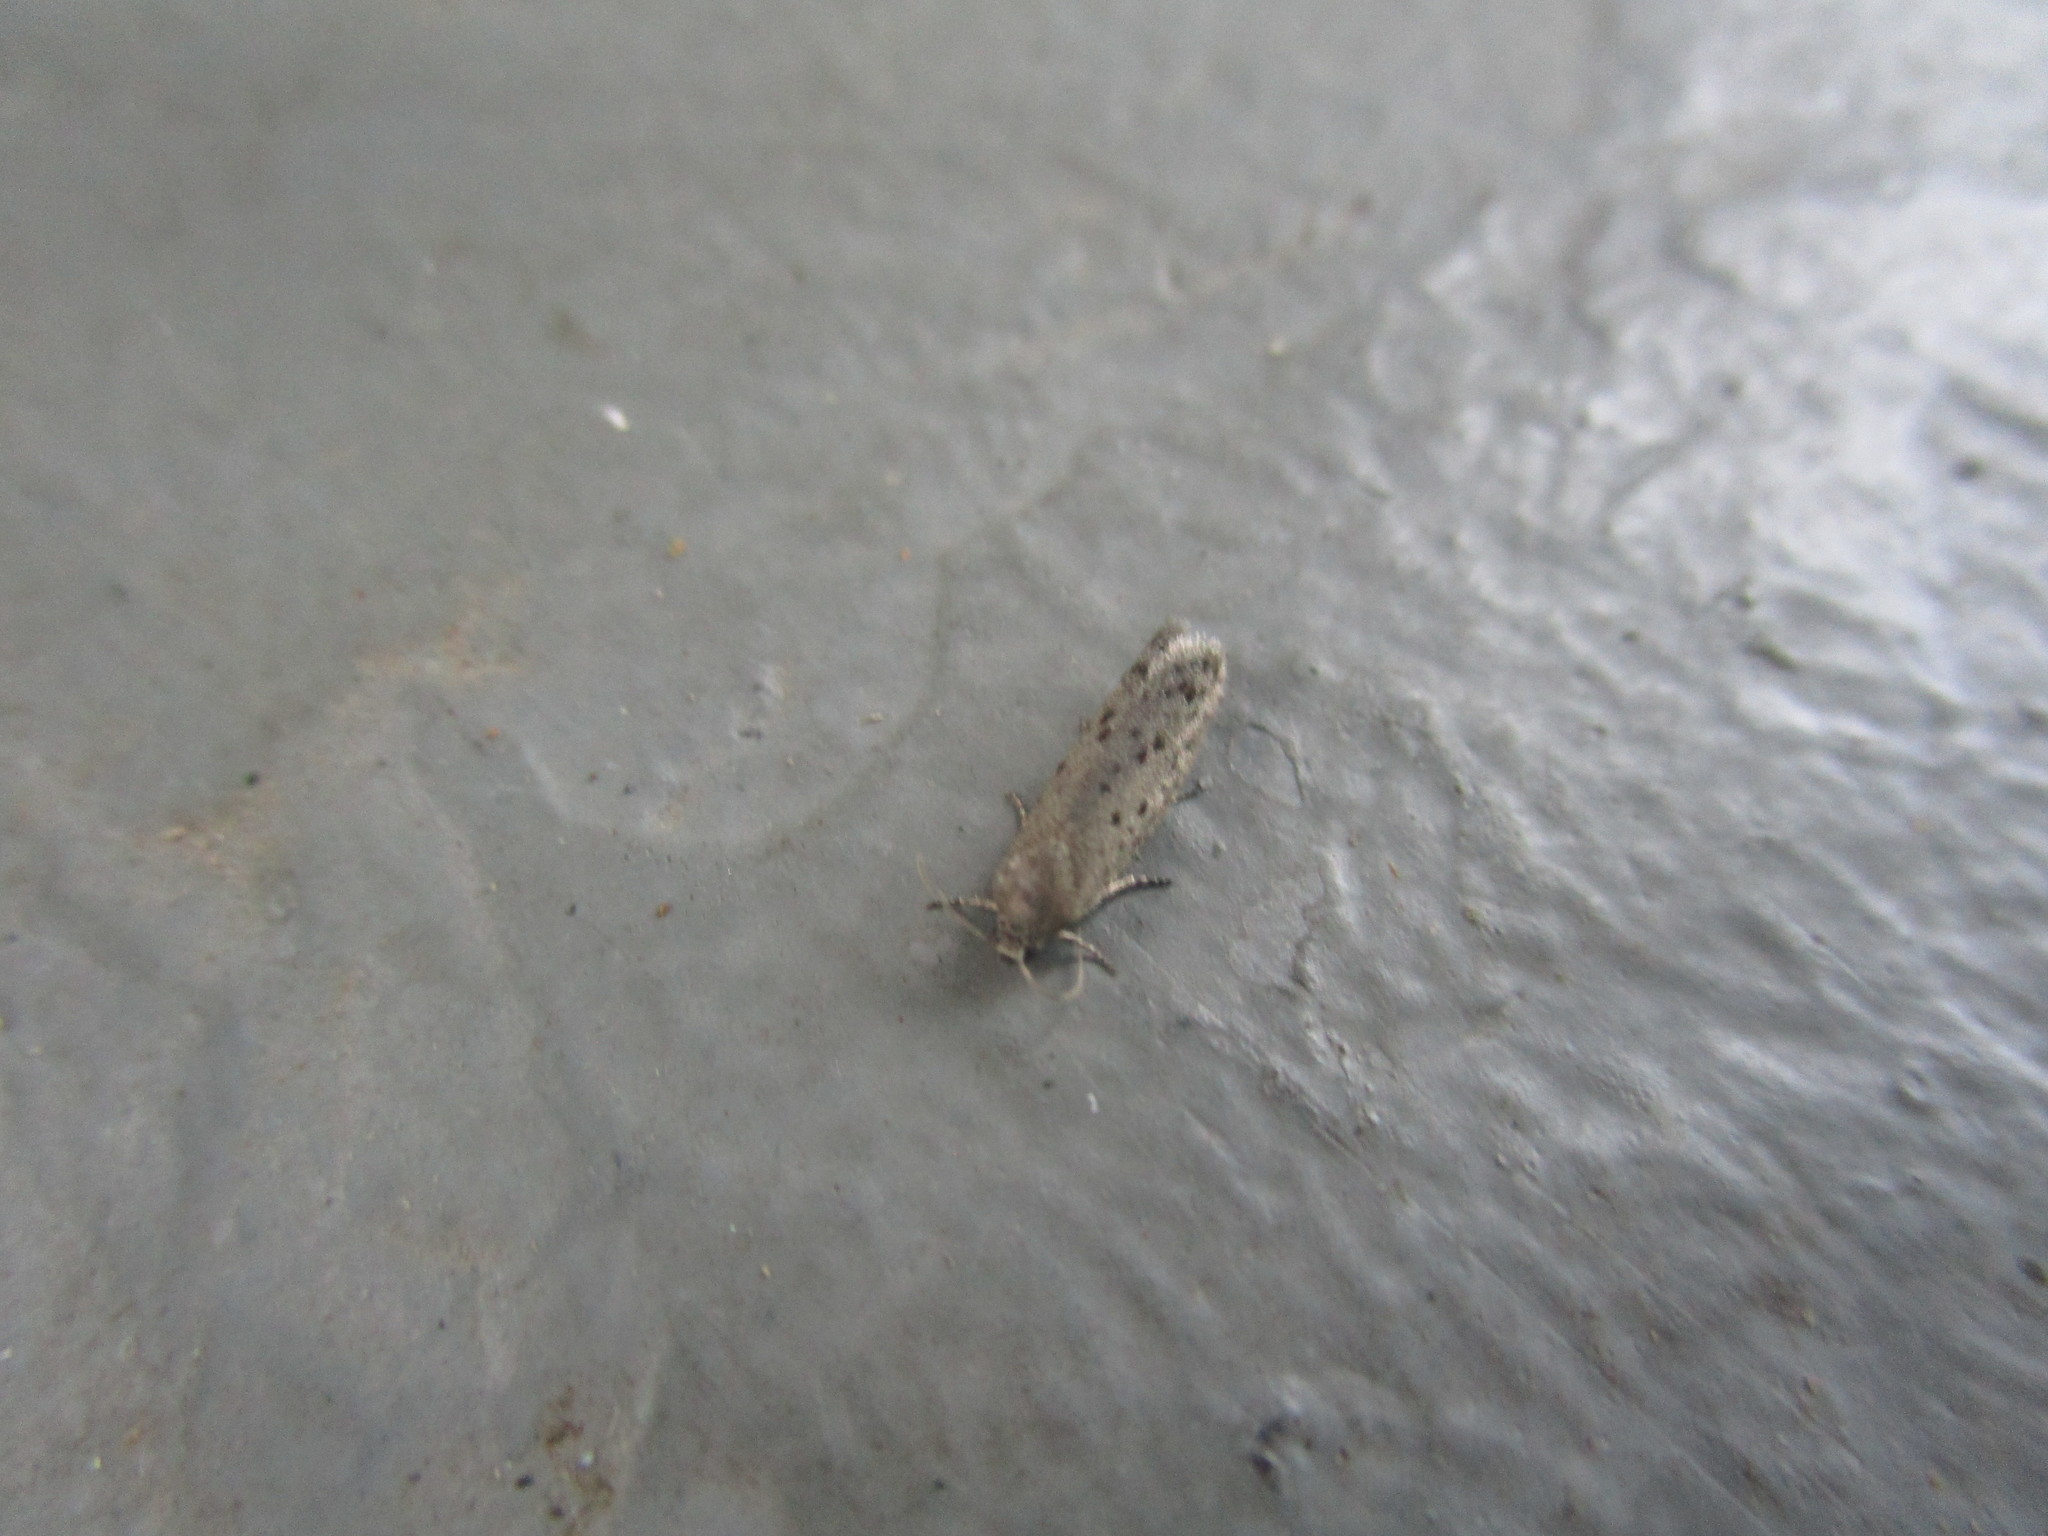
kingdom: Animalia
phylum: Arthropoda
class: Insecta
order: Lepidoptera
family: Galacticidae
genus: Homadaula
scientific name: Homadaula anisocentra
